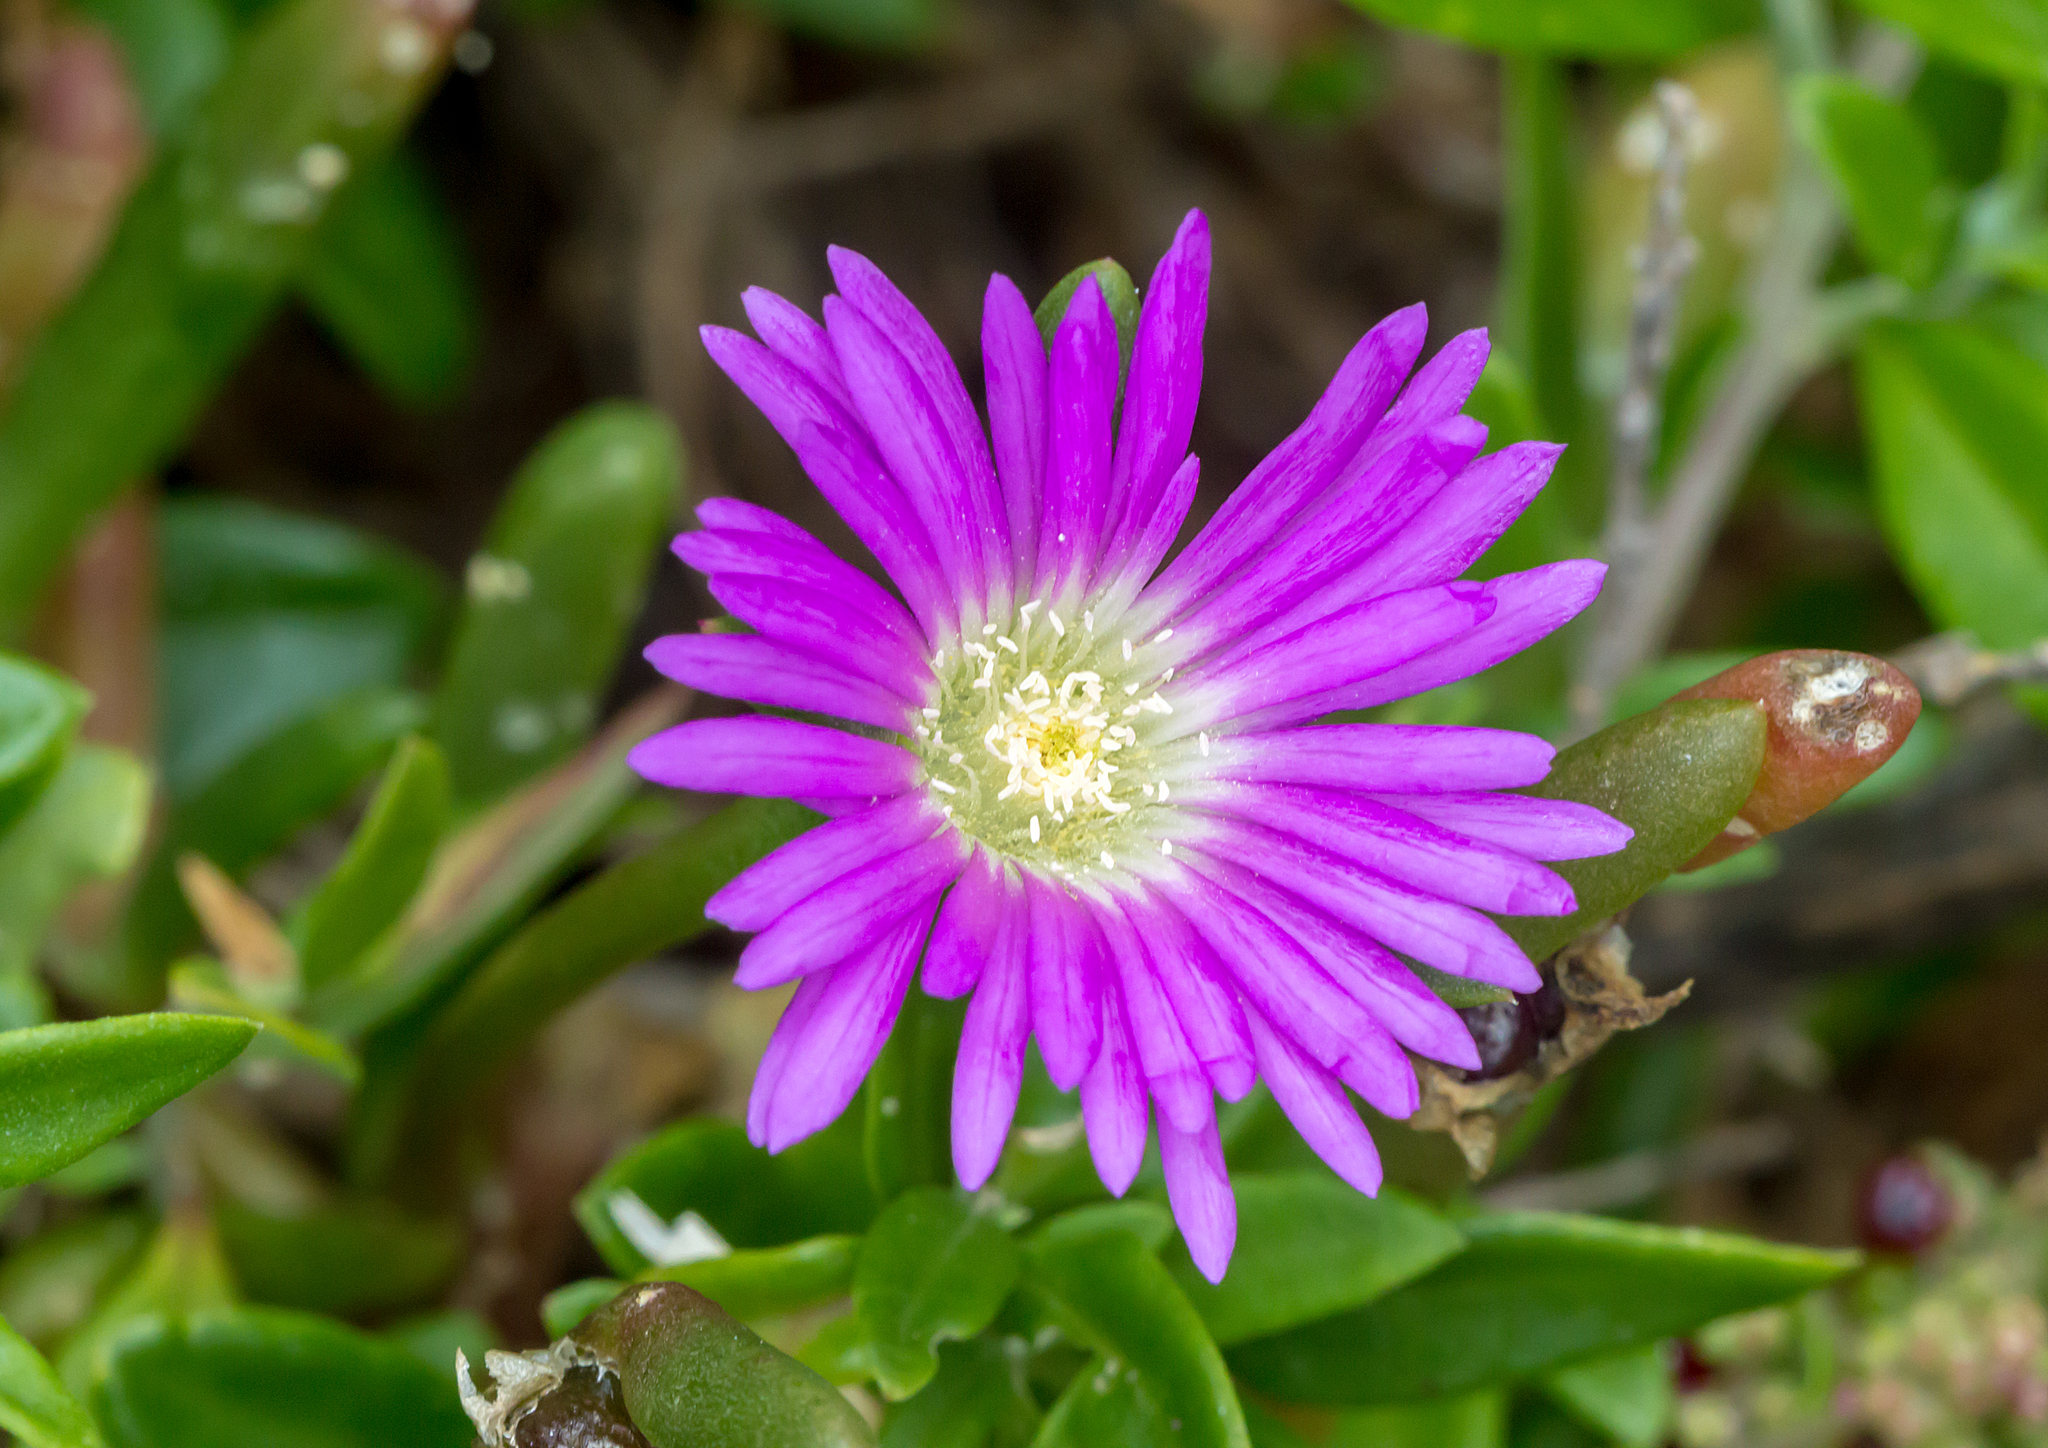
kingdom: Plantae
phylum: Tracheophyta
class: Magnoliopsida
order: Caryophyllales
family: Aizoaceae
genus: Disphyma
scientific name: Disphyma crassifolium
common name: Purple dewplant
